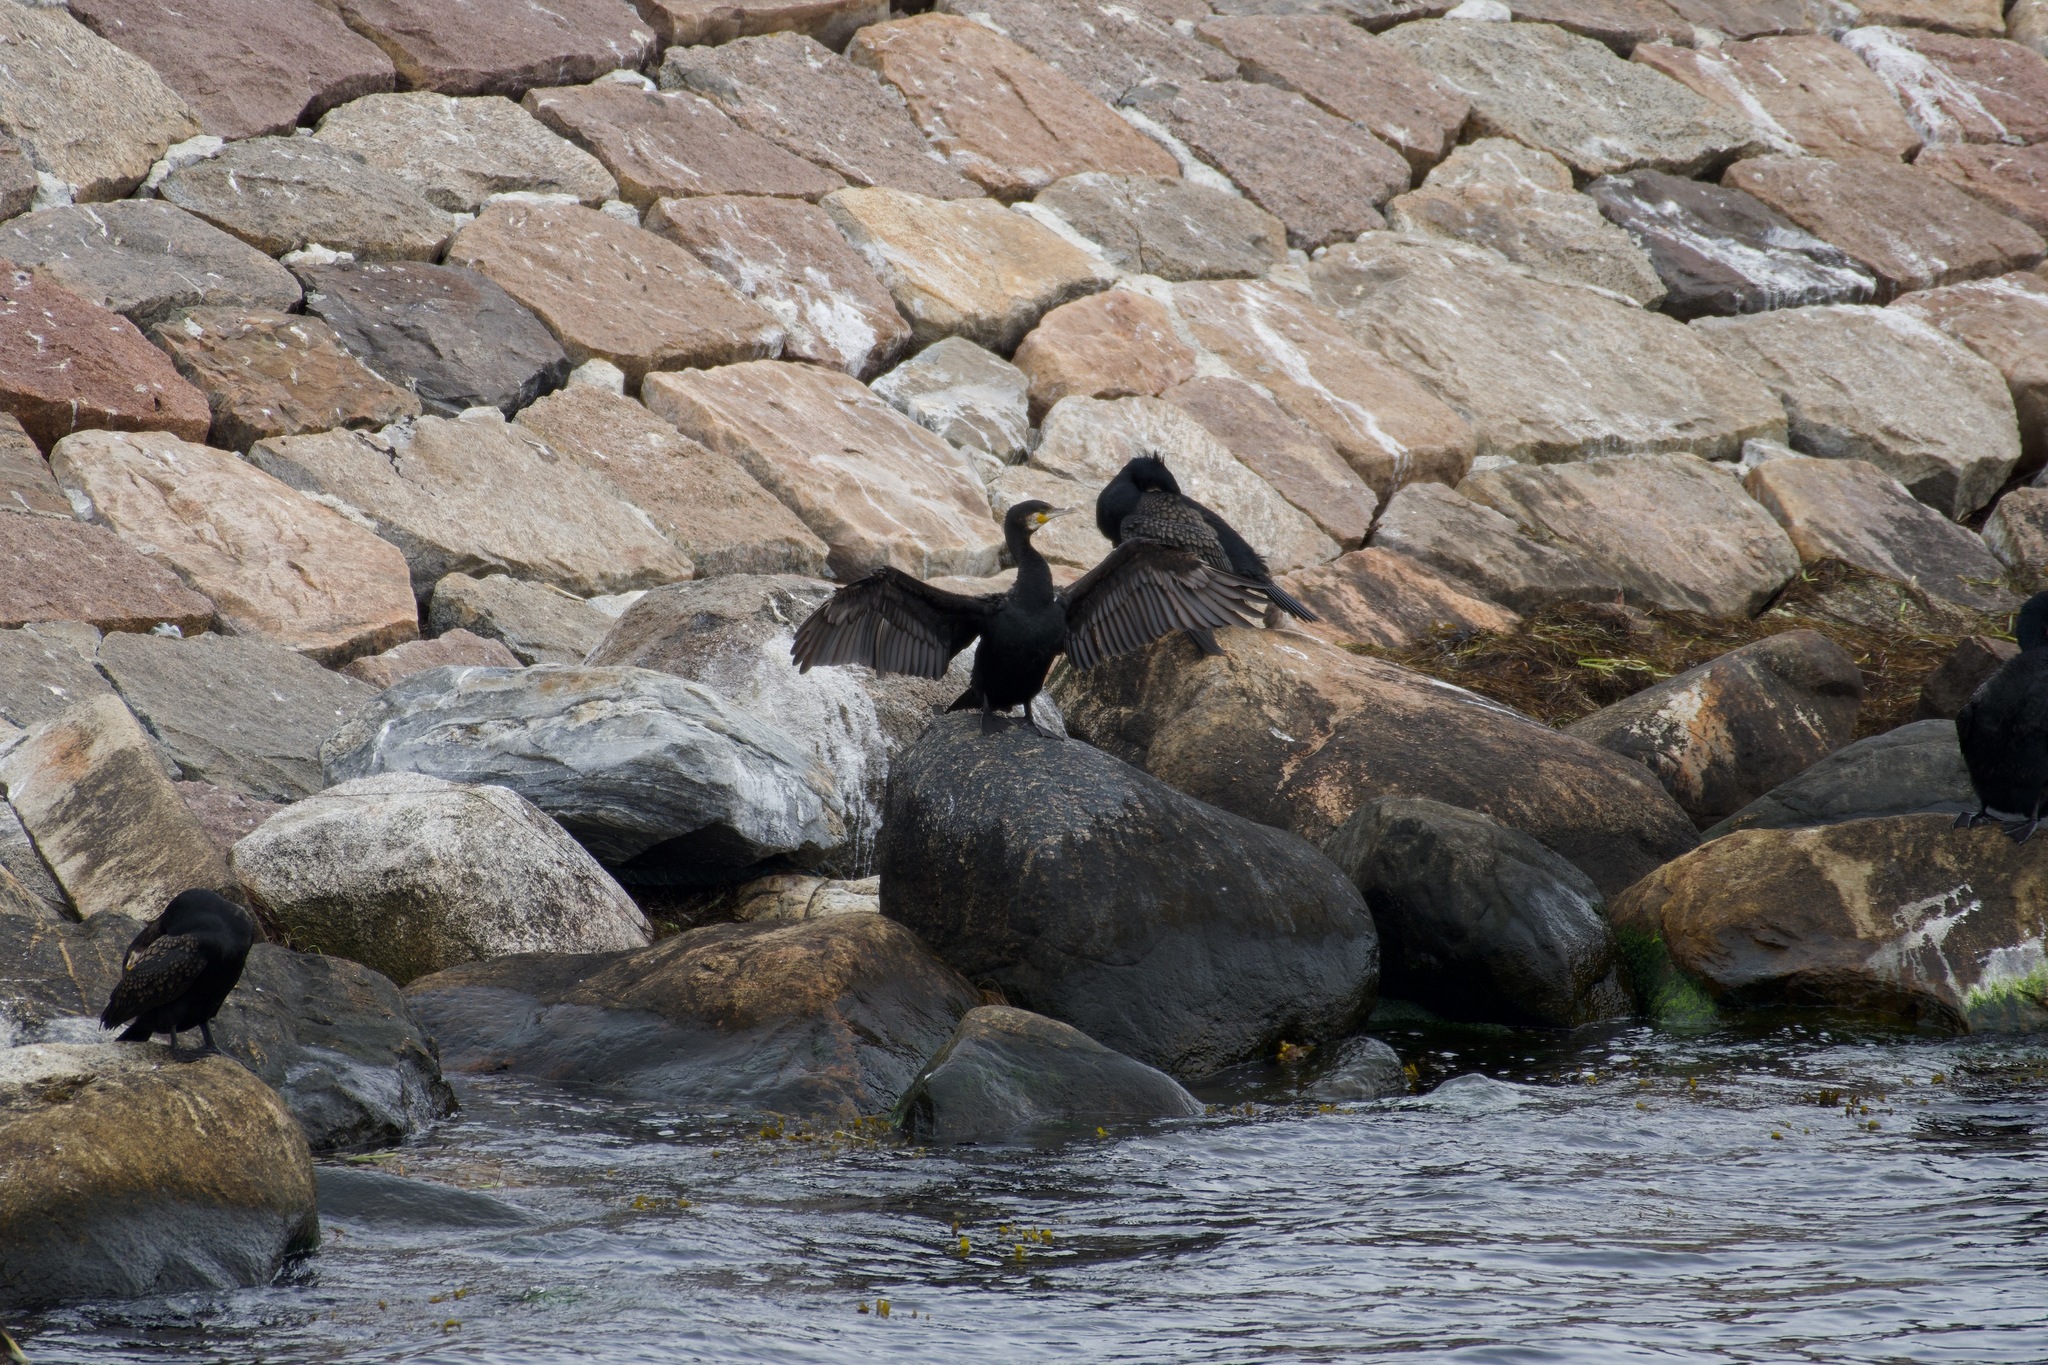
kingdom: Animalia
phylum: Chordata
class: Aves
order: Suliformes
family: Phalacrocoracidae
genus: Phalacrocorax
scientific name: Phalacrocorax carbo
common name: Great cormorant
